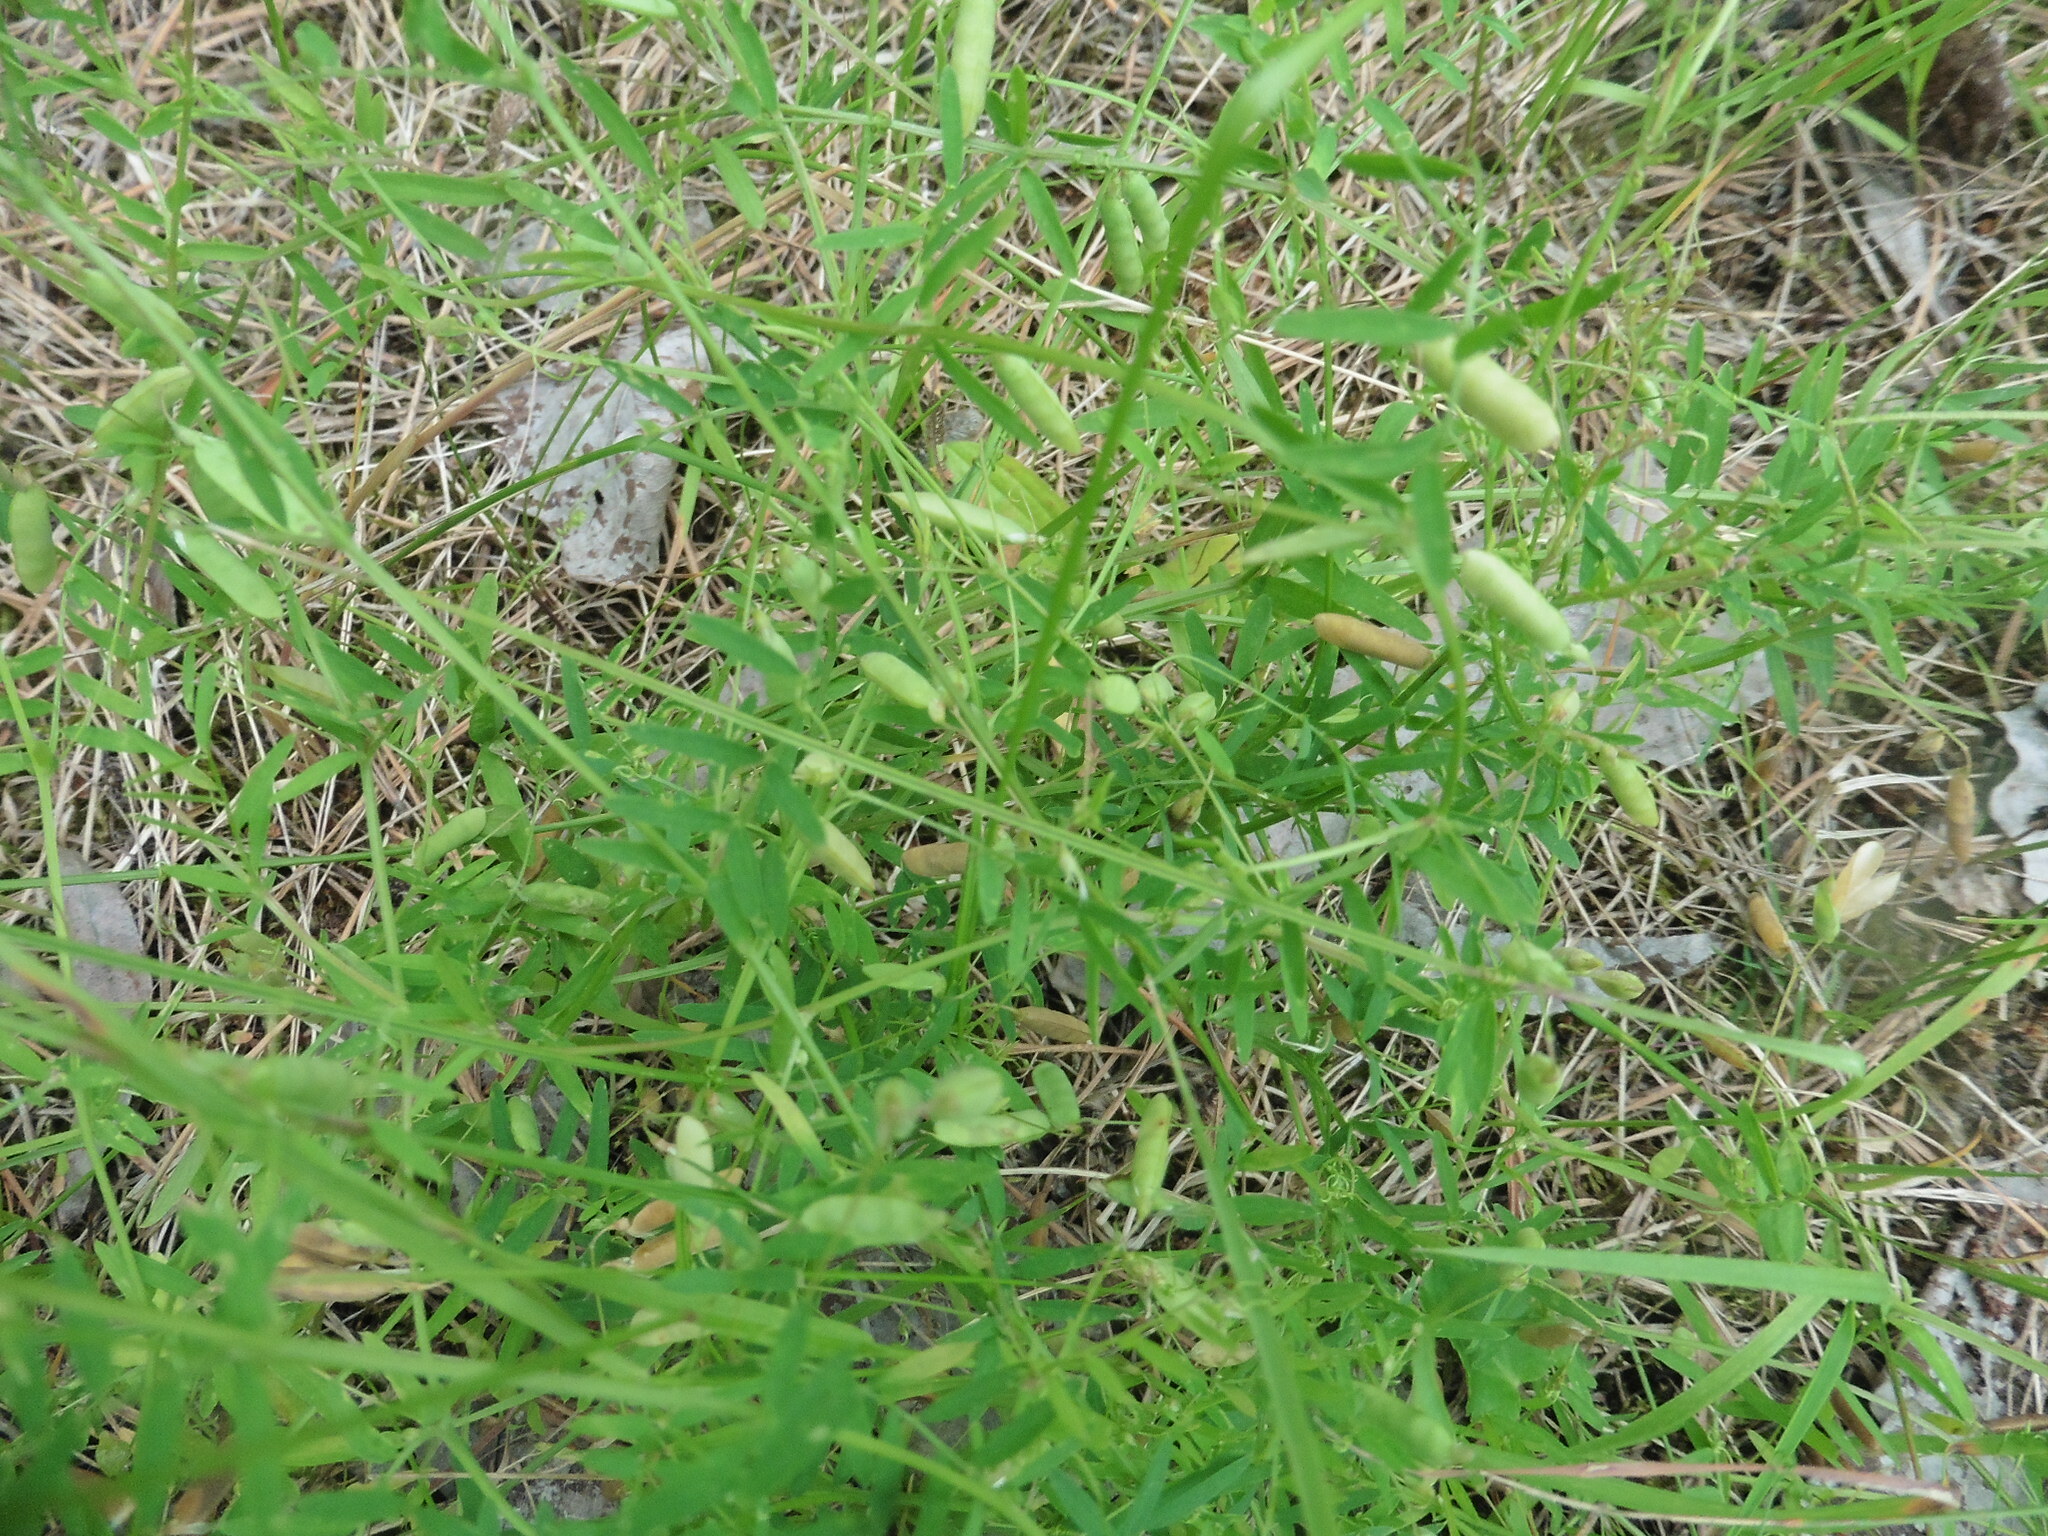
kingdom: Plantae
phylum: Tracheophyta
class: Magnoliopsida
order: Fabales
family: Fabaceae
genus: Vicia
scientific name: Vicia tetrasperma
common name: Smooth tare
